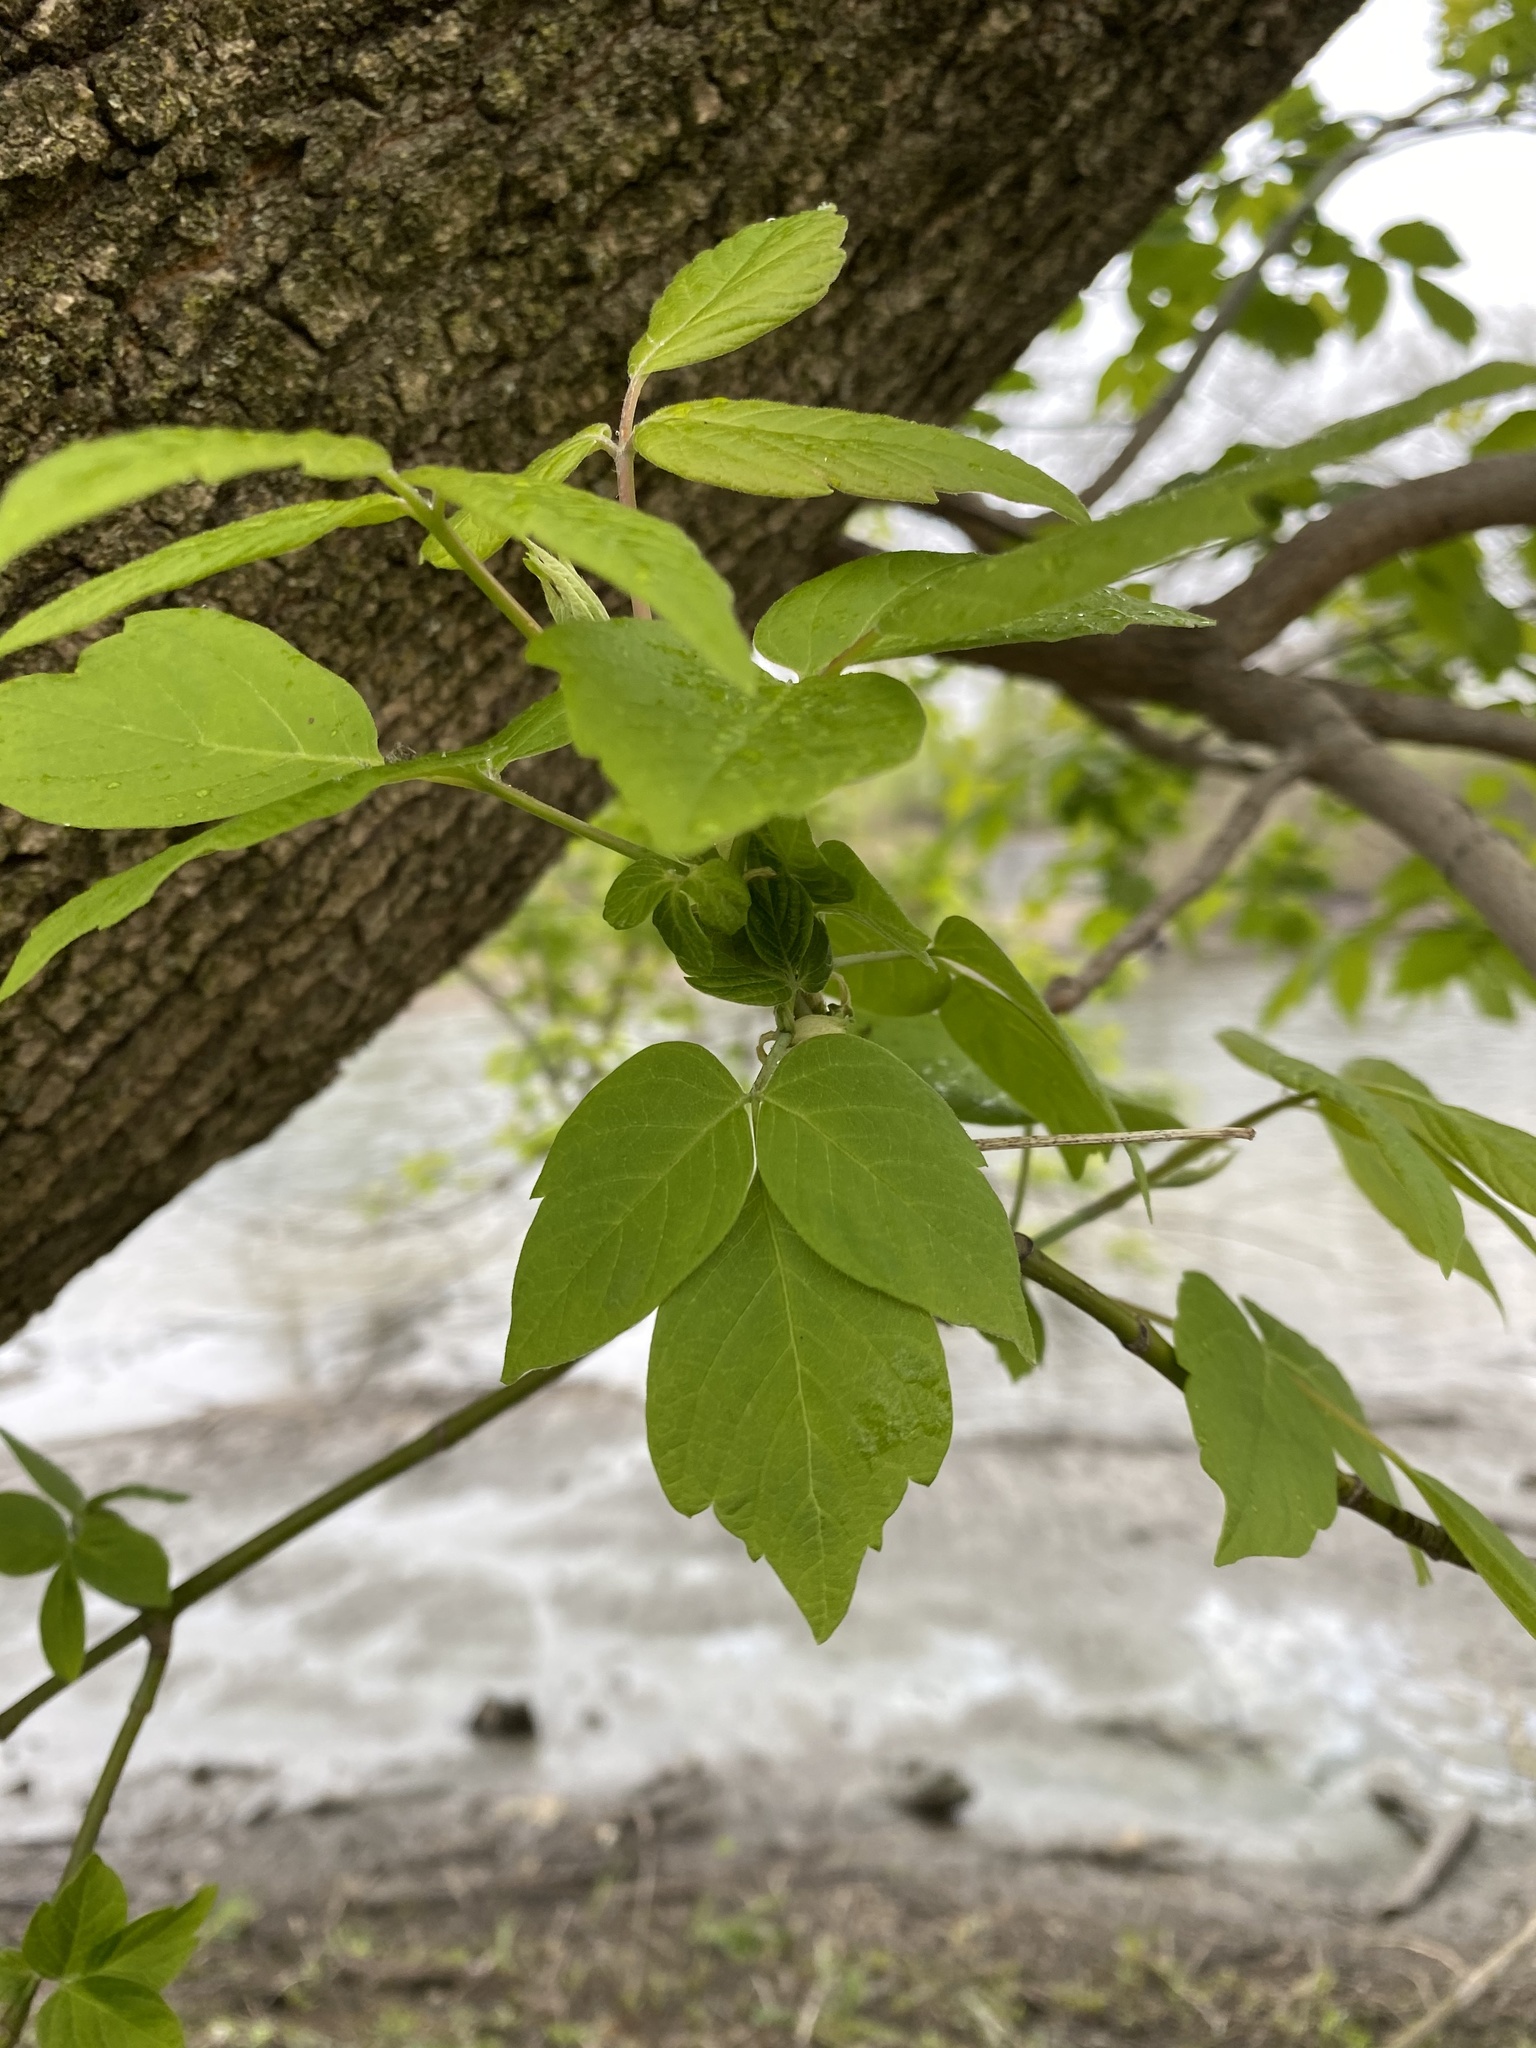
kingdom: Plantae
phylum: Tracheophyta
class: Magnoliopsida
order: Sapindales
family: Sapindaceae
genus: Acer
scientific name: Acer negundo
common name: Ashleaf maple
